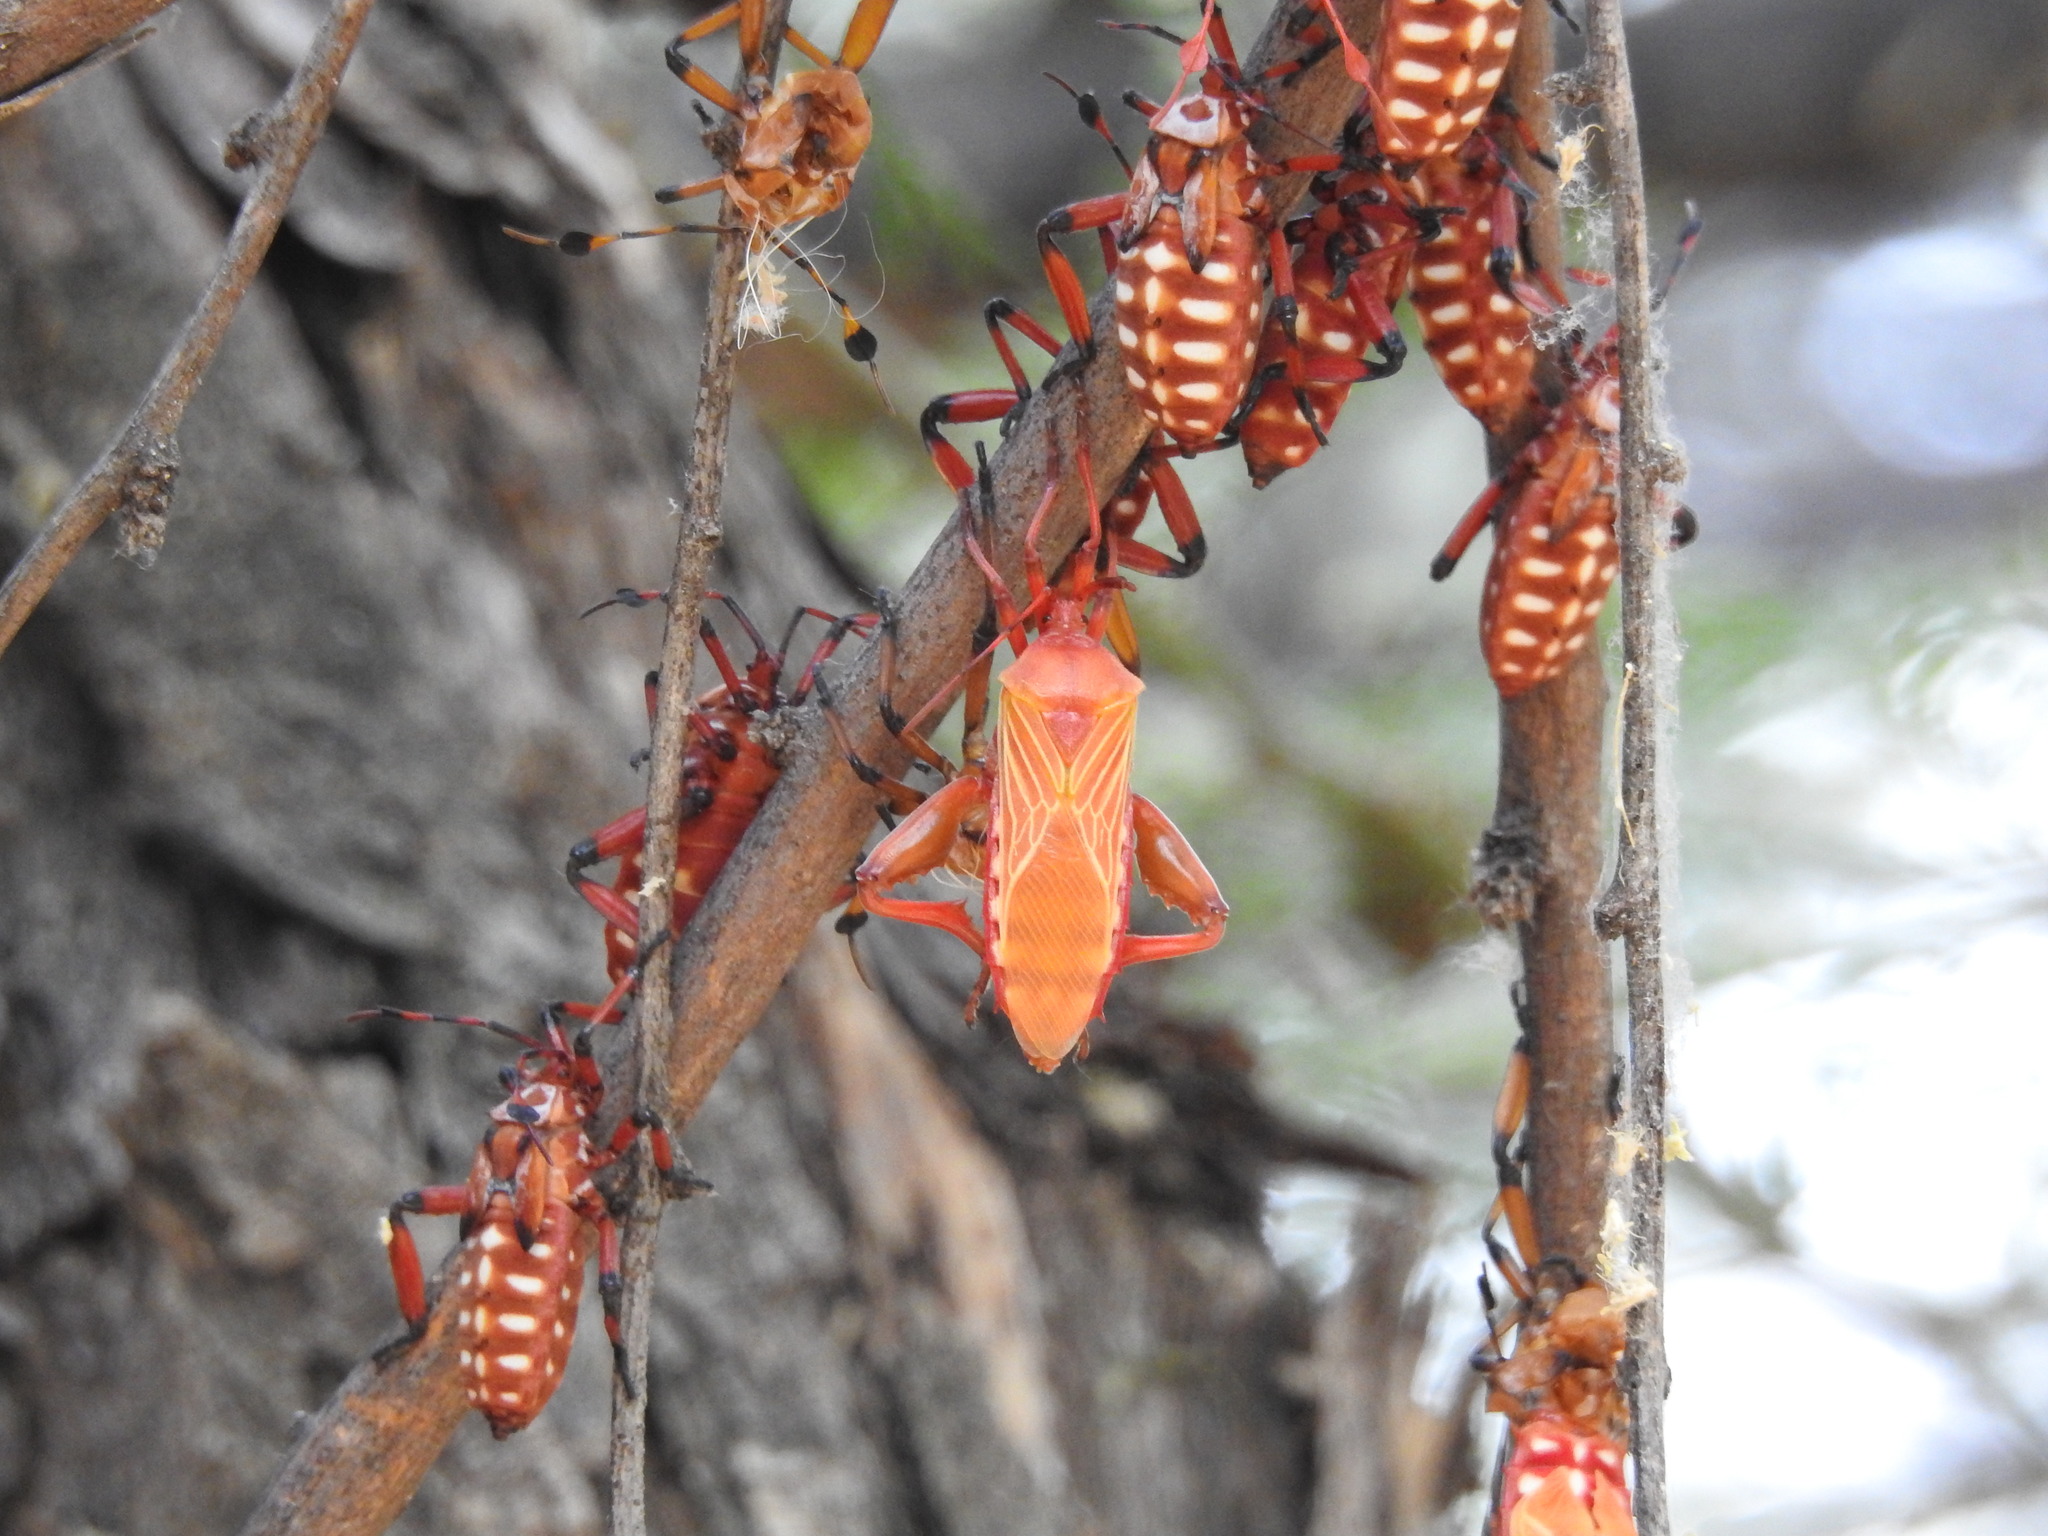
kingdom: Animalia
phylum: Arthropoda
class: Insecta
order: Hemiptera
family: Coreidae
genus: Thasus
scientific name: Thasus neocalifornicus
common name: Giant mesquite bug
